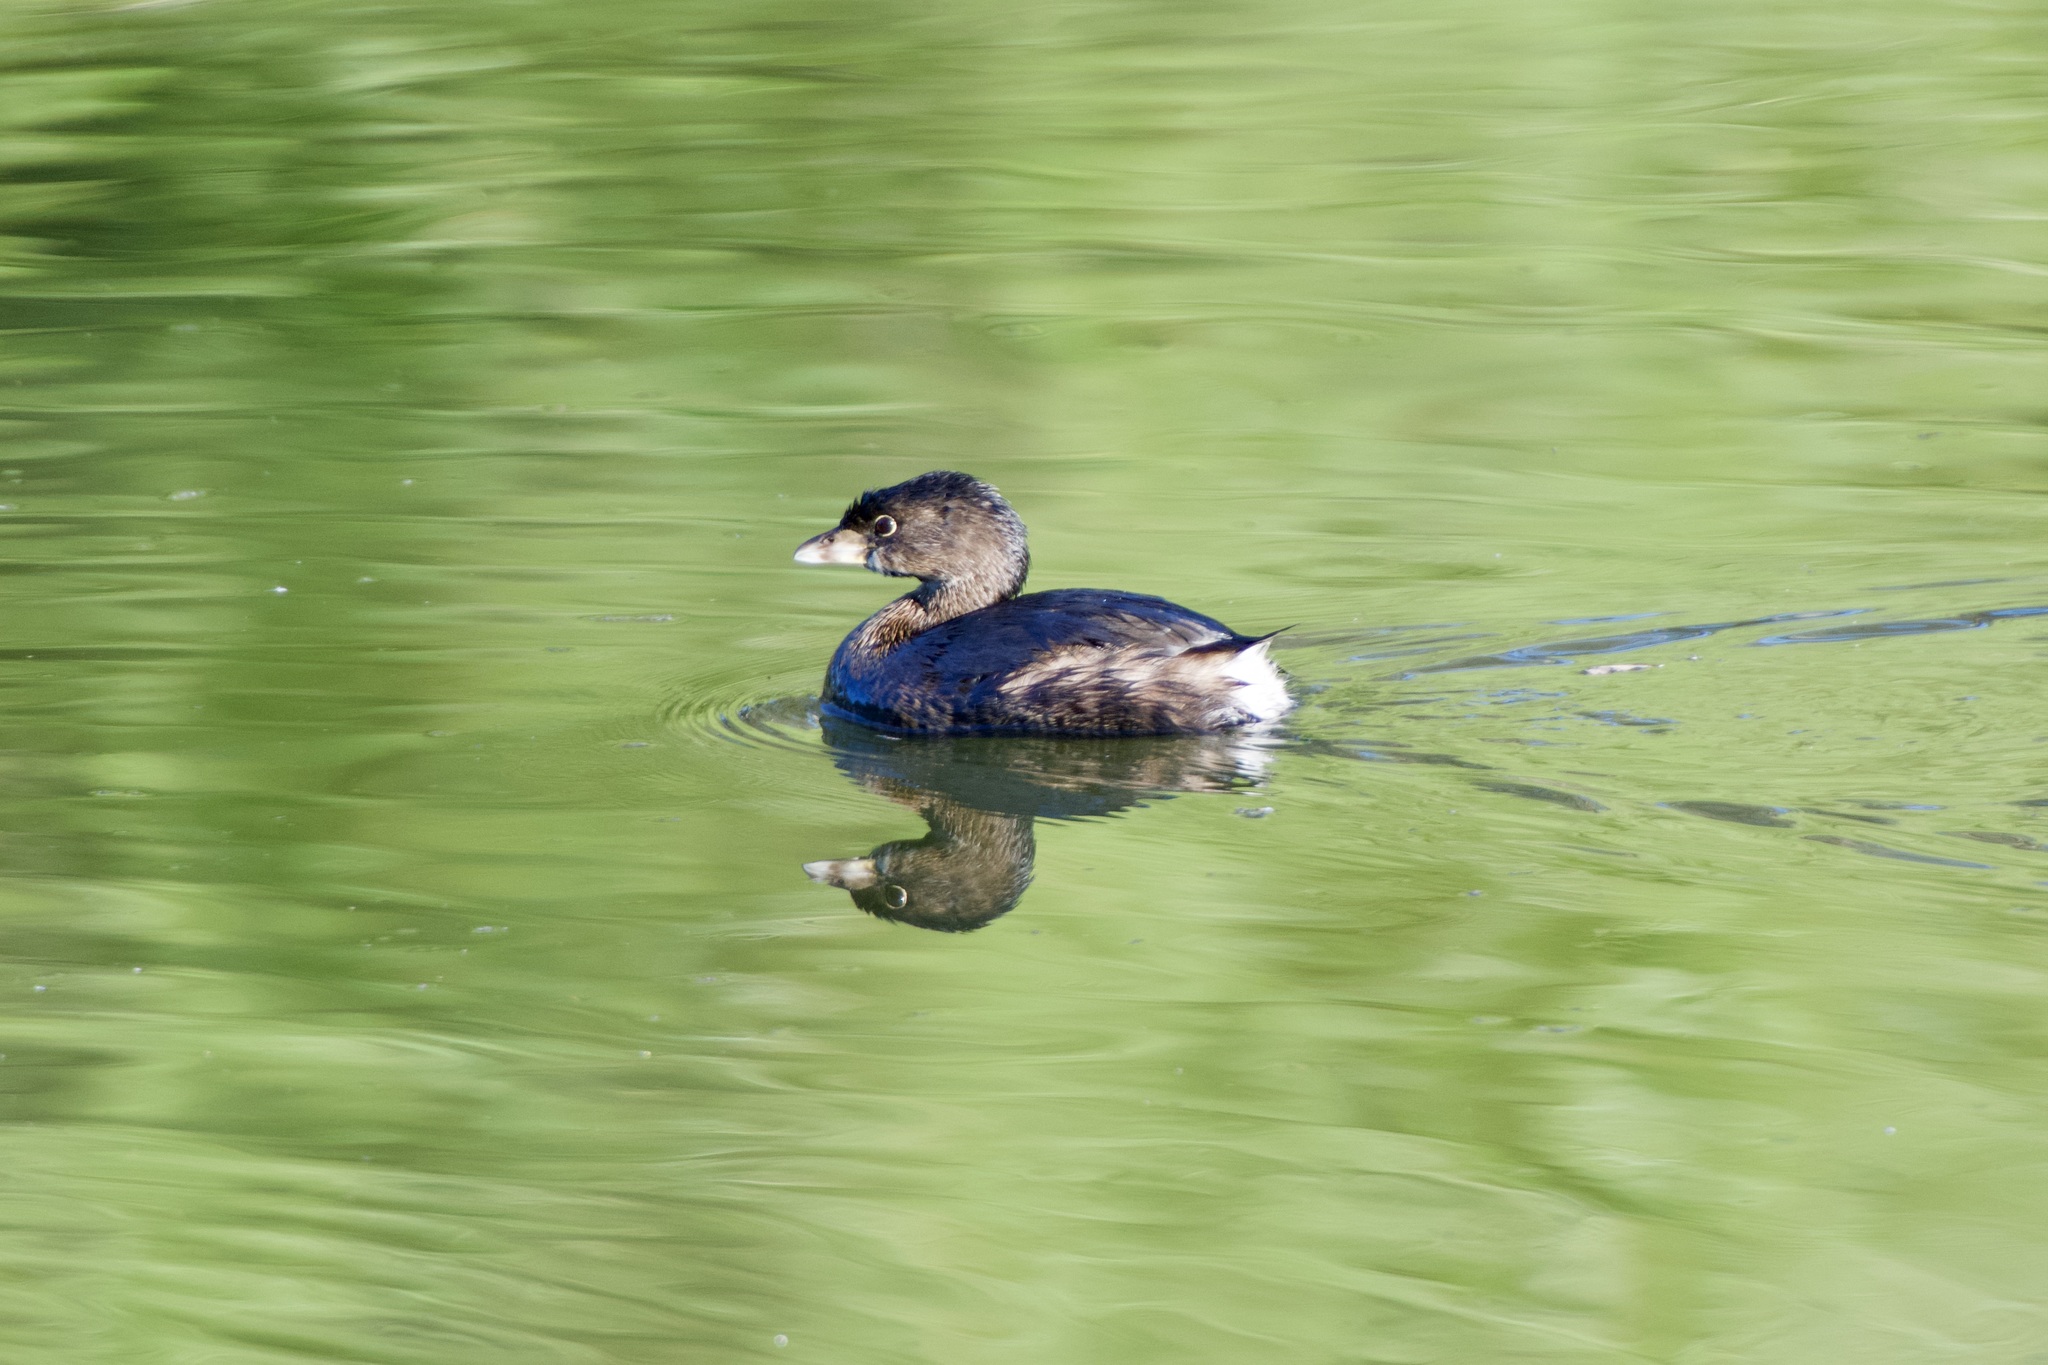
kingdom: Animalia
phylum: Chordata
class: Aves
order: Podicipediformes
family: Podicipedidae
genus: Podilymbus
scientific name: Podilymbus podiceps
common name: Pied-billed grebe
